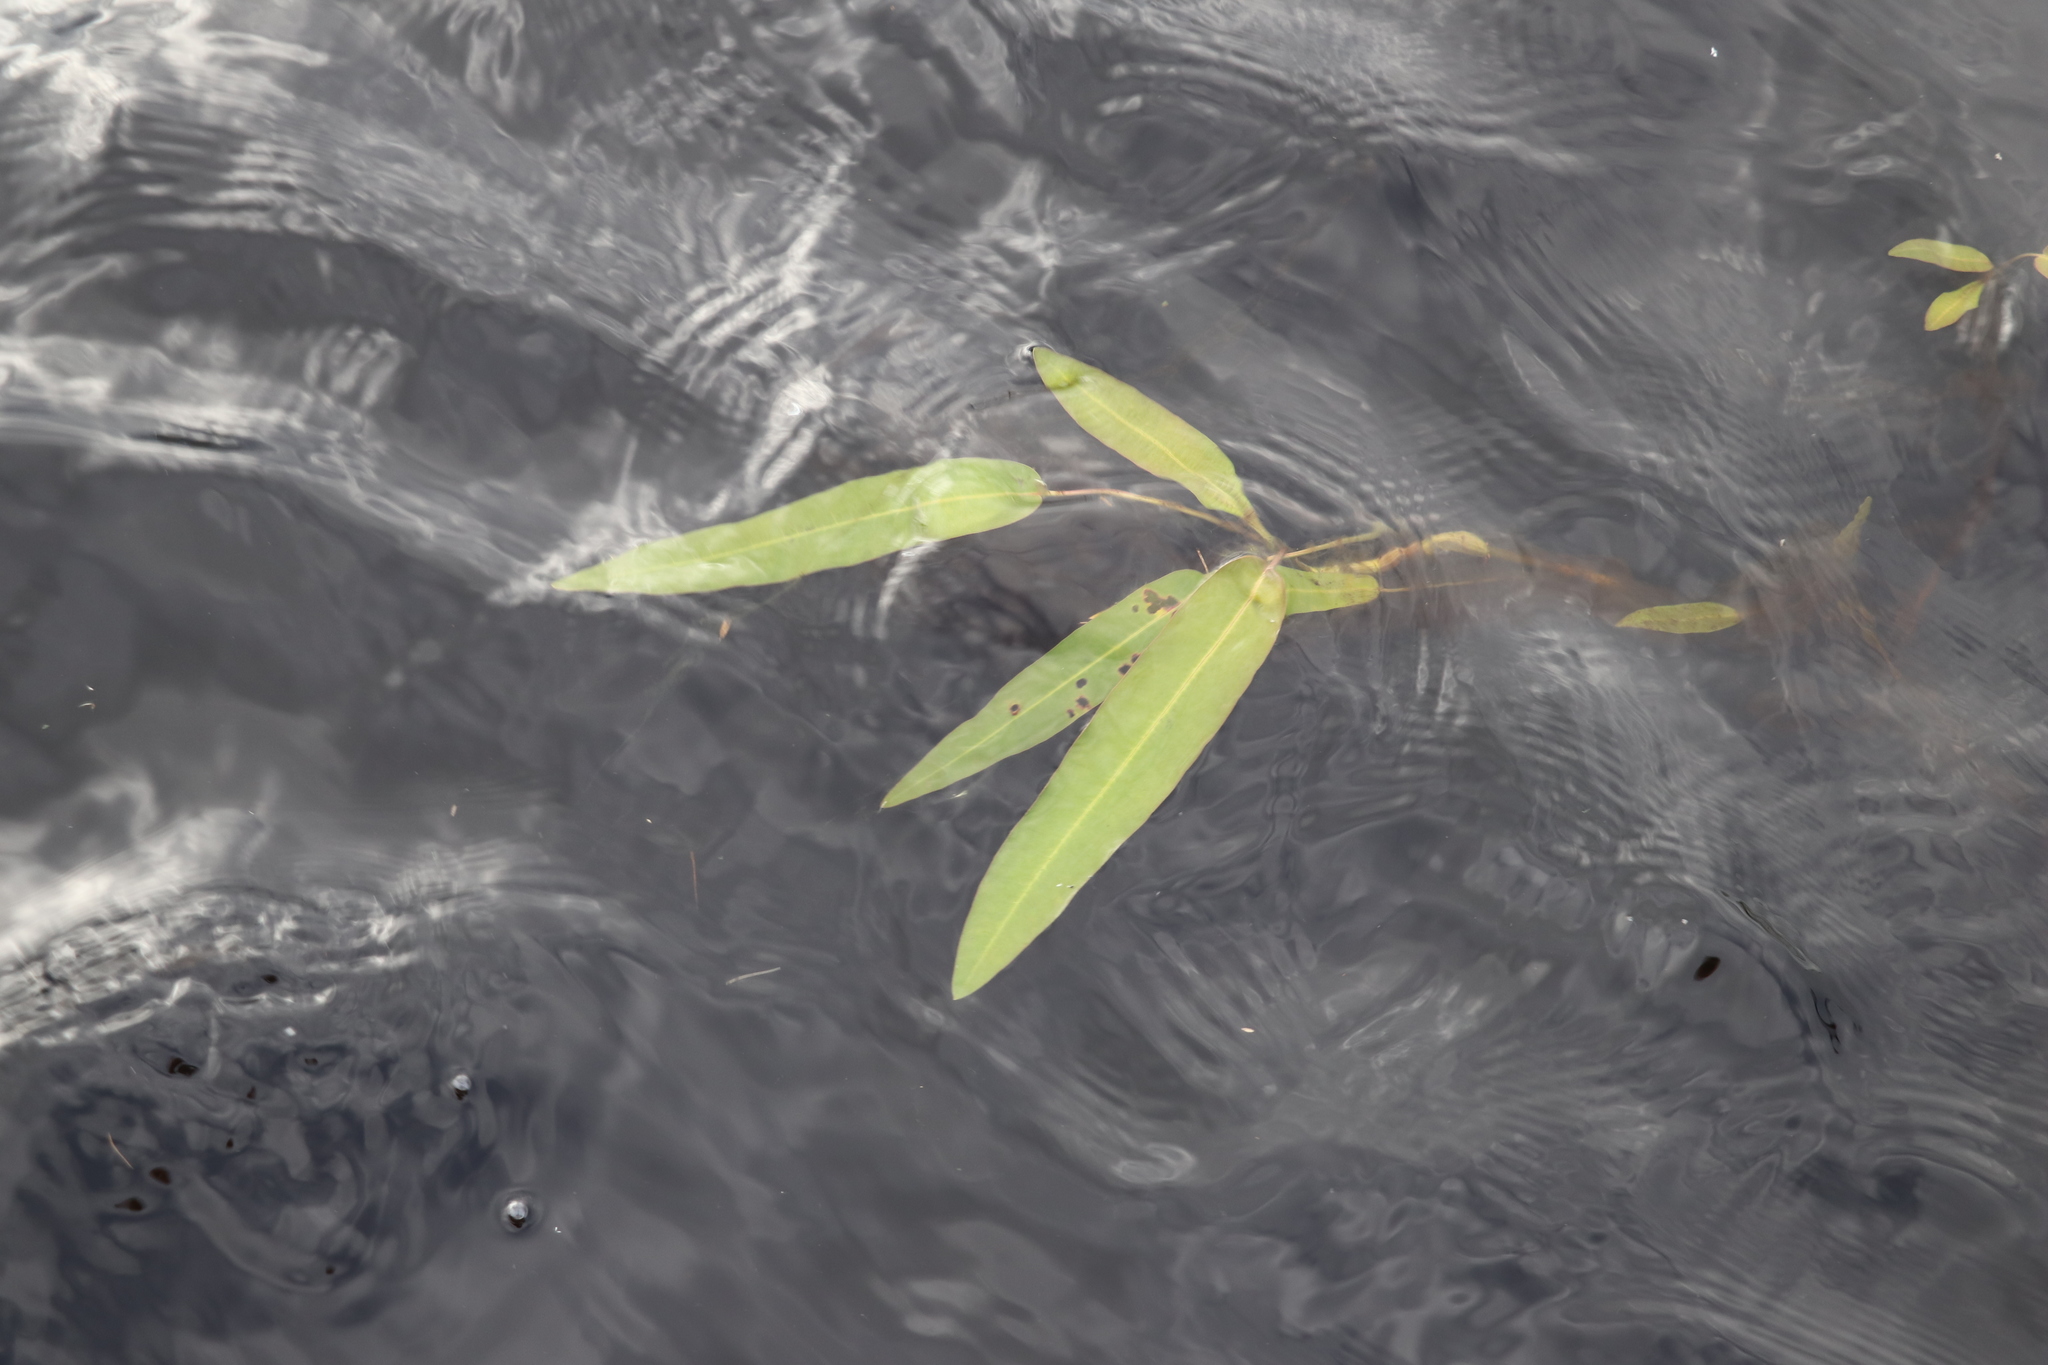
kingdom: Plantae
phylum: Tracheophyta
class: Magnoliopsida
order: Caryophyllales
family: Polygonaceae
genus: Persicaria
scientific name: Persicaria amphibia
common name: Amphibious bistort
